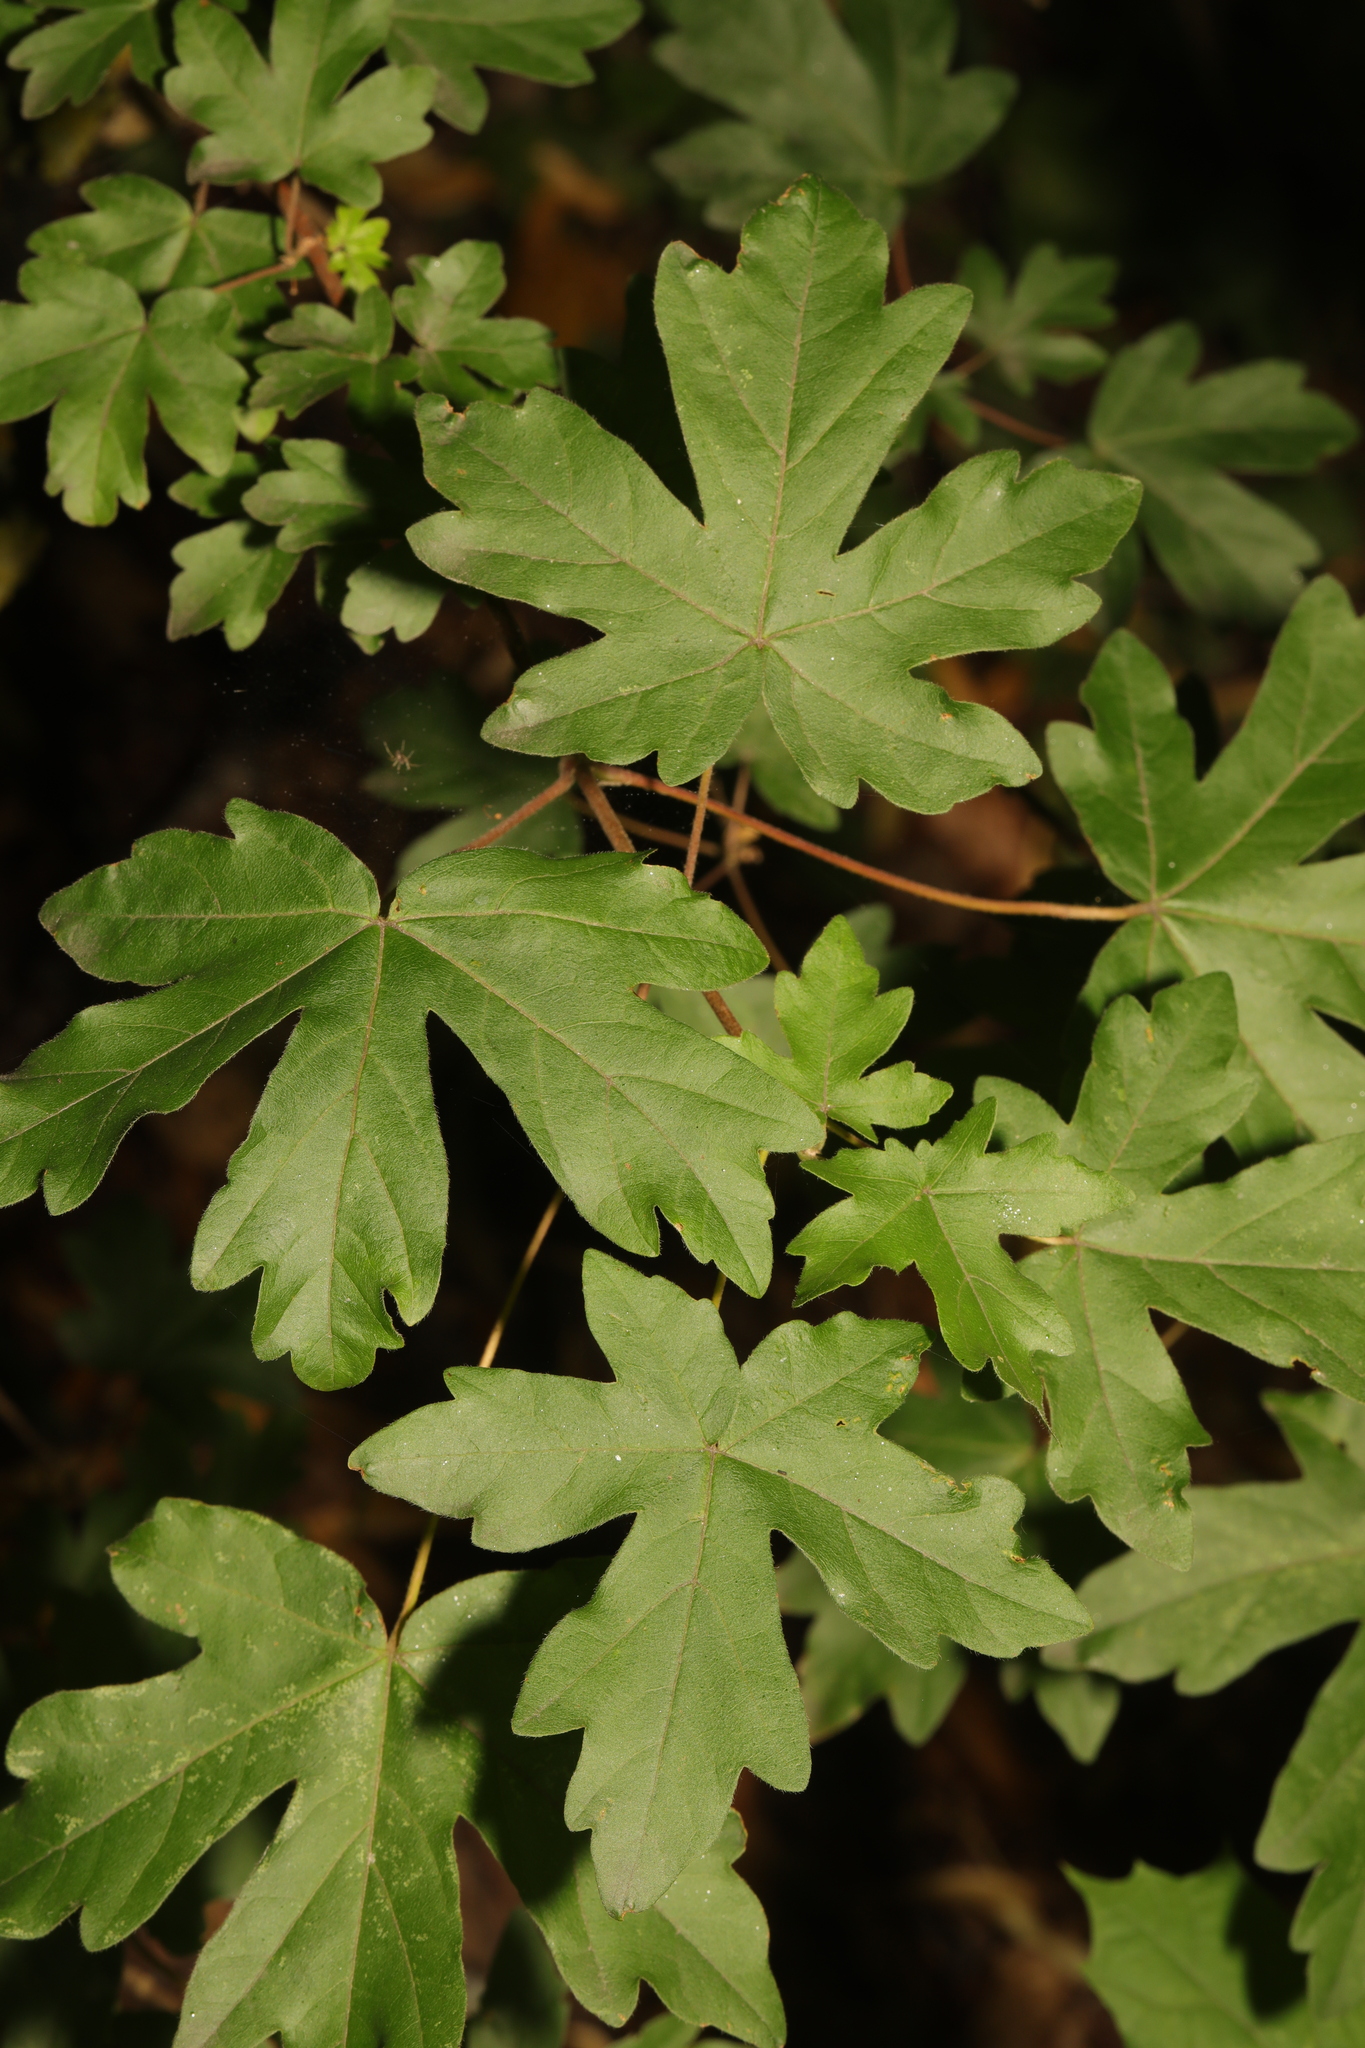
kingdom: Plantae
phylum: Tracheophyta
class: Magnoliopsida
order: Sapindales
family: Sapindaceae
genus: Acer
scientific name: Acer campestre
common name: Field maple
